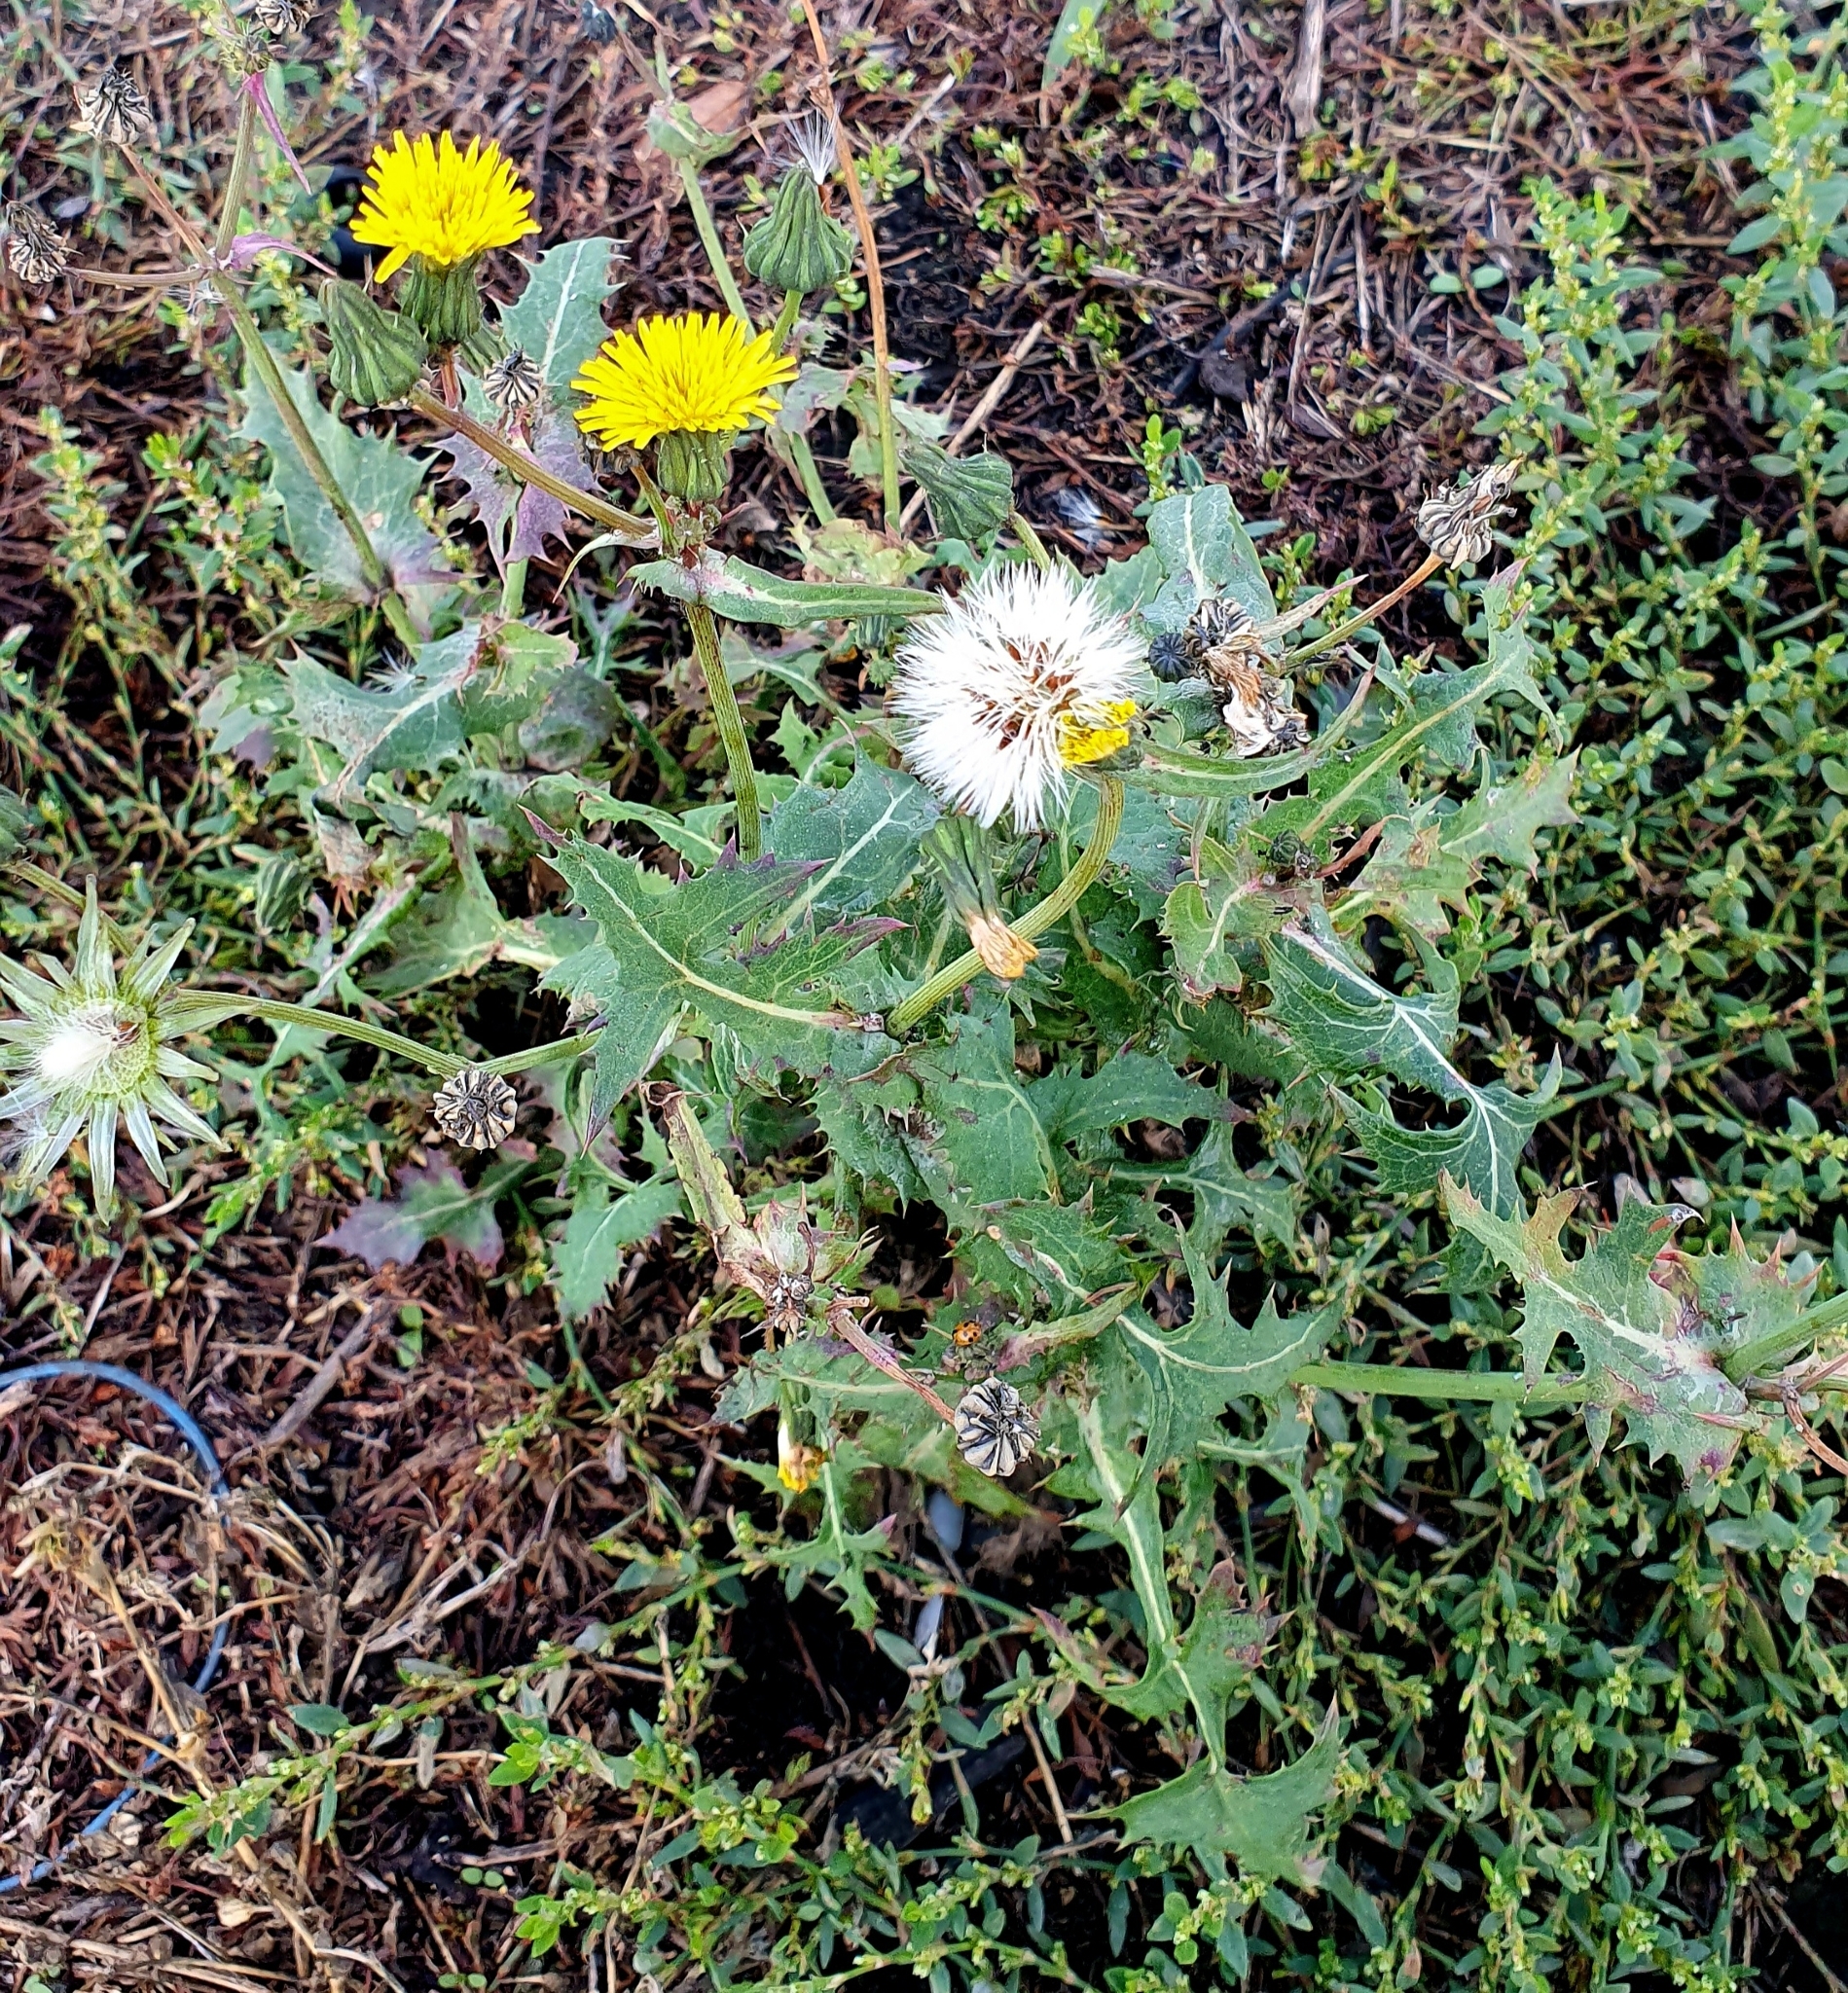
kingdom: Plantae
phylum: Tracheophyta
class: Magnoliopsida
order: Asterales
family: Asteraceae
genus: Sonchus
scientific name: Sonchus oleraceus
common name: Common sowthistle
